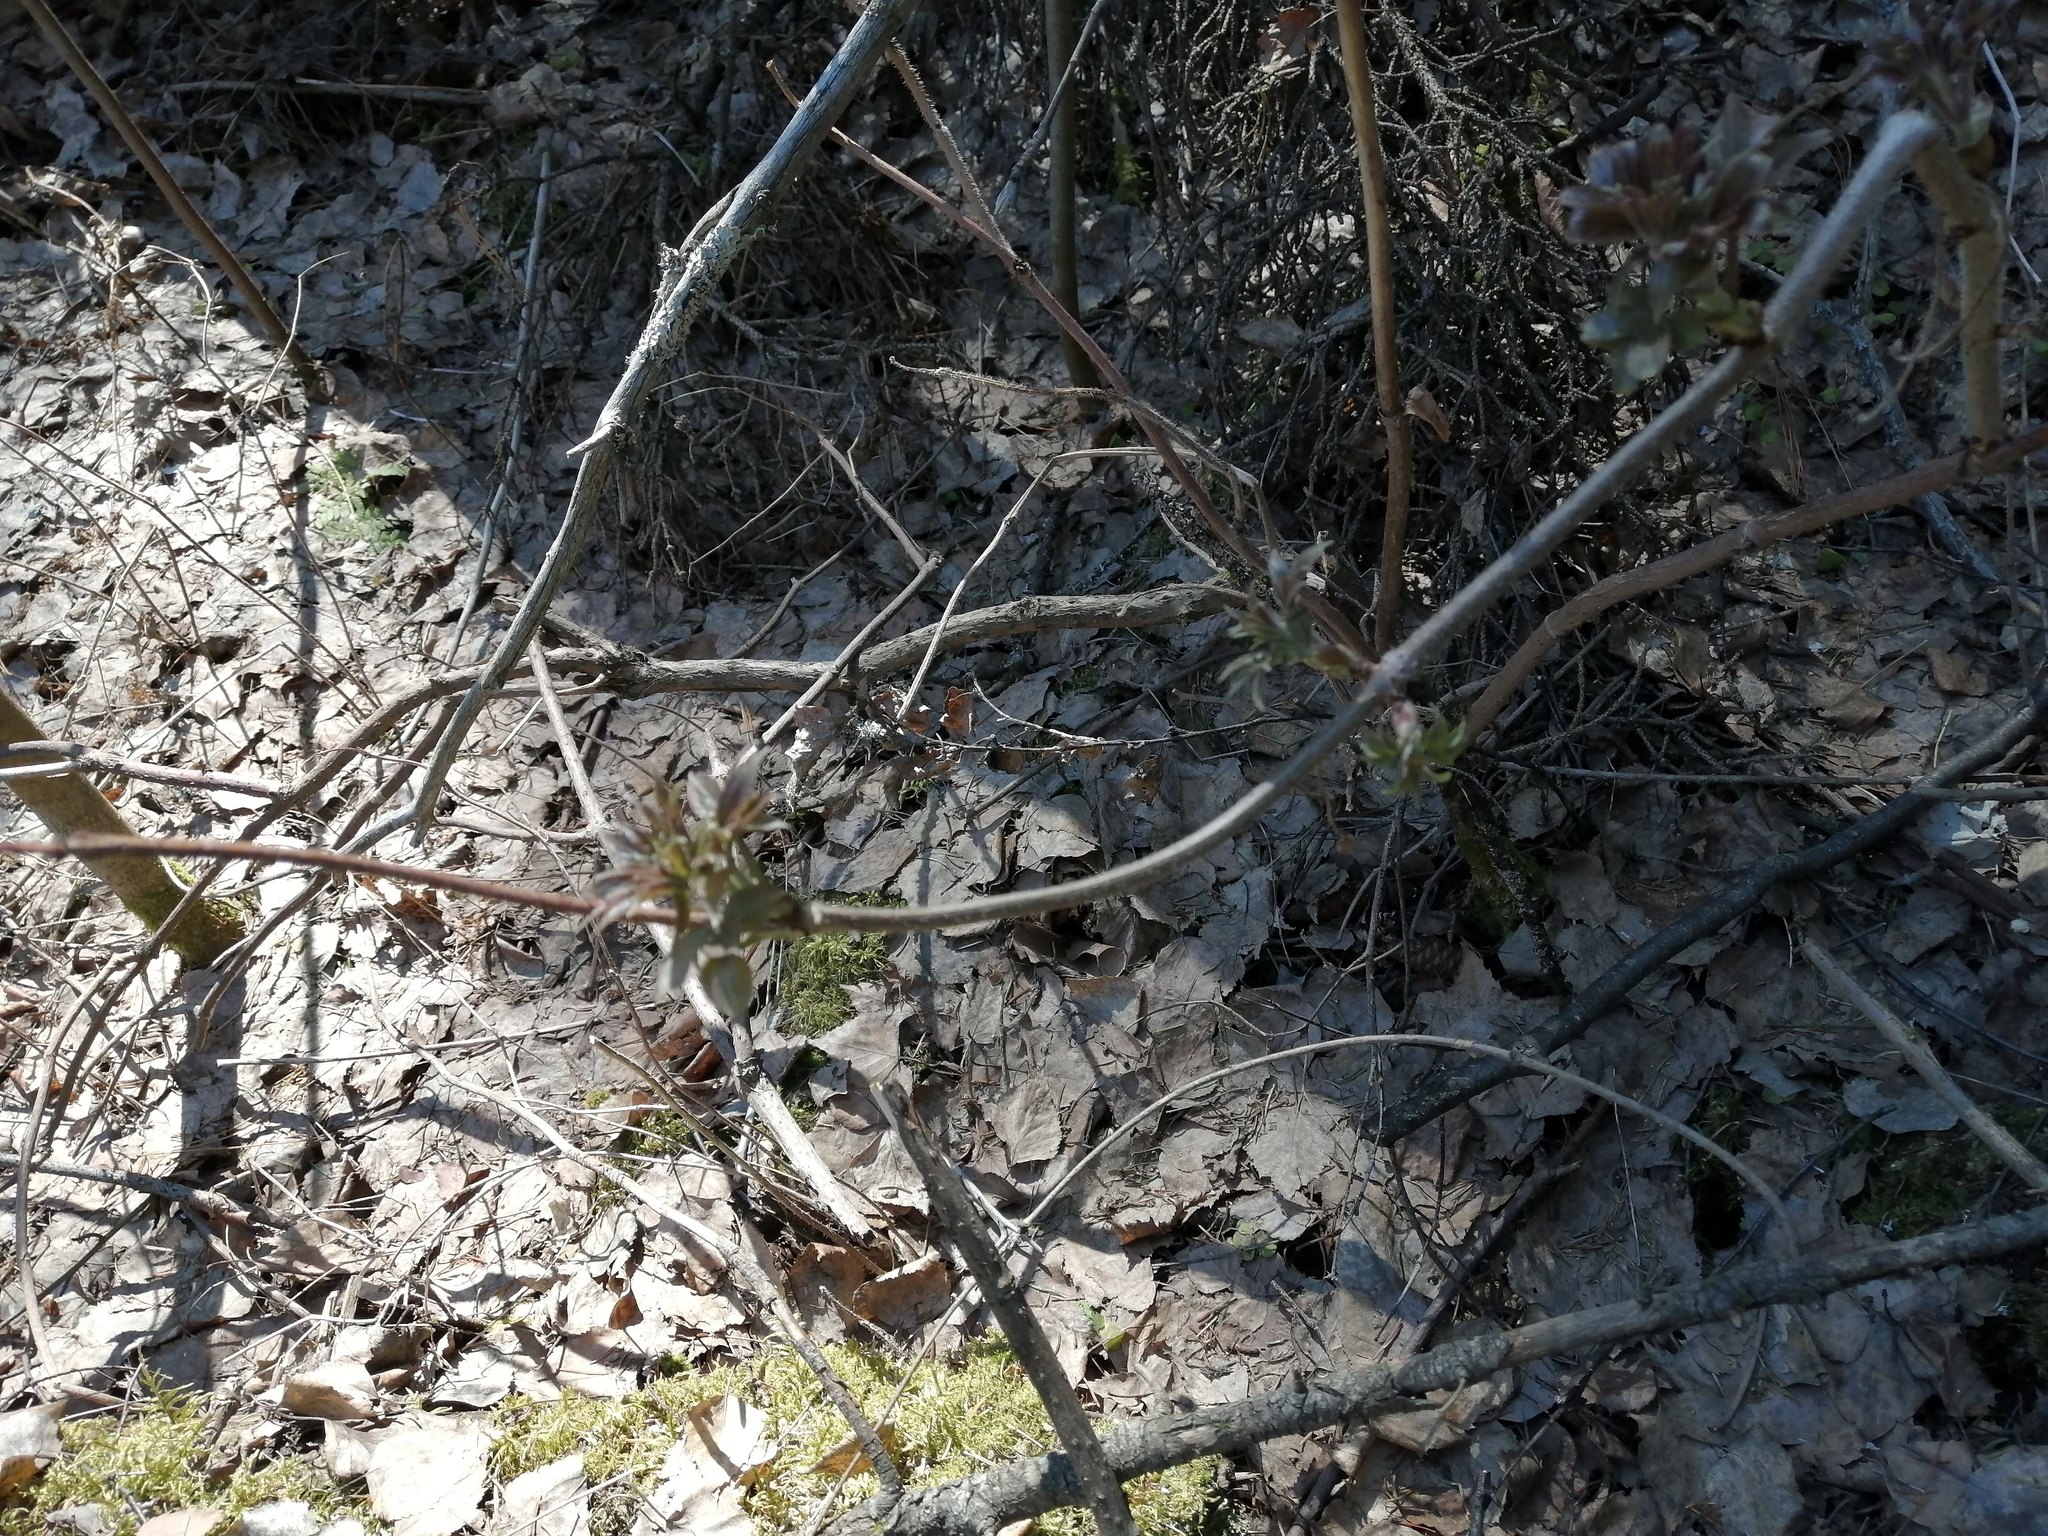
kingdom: Plantae
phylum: Tracheophyta
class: Magnoliopsida
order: Dipsacales
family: Viburnaceae
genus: Sambucus
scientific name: Sambucus sibirica
